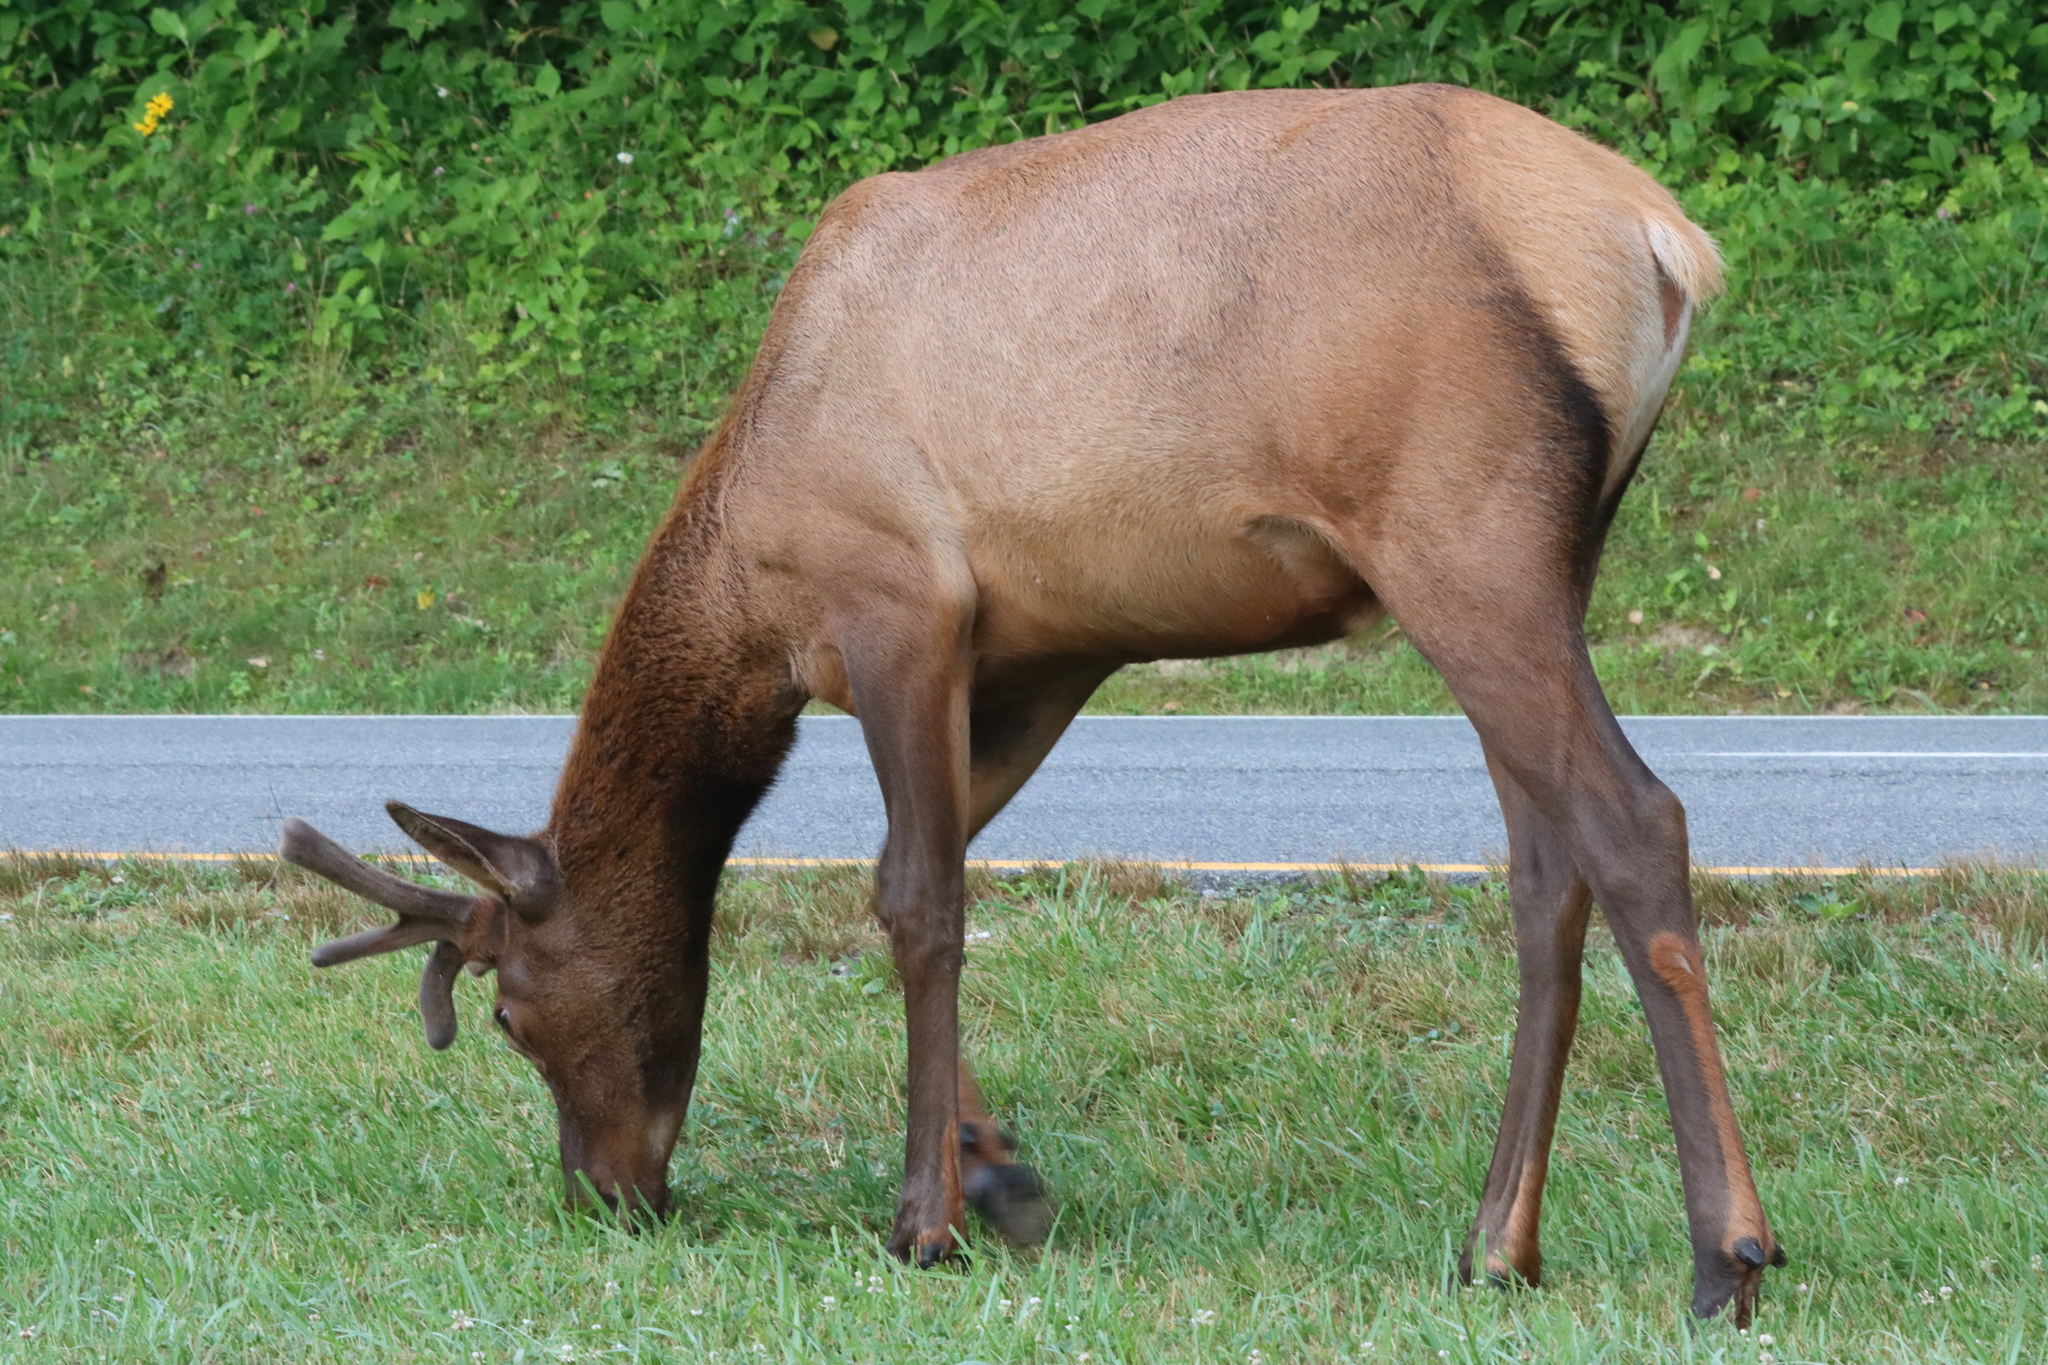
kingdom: Animalia
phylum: Chordata
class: Mammalia
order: Artiodactyla
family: Cervidae
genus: Cervus
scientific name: Cervus elaphus
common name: Red deer
